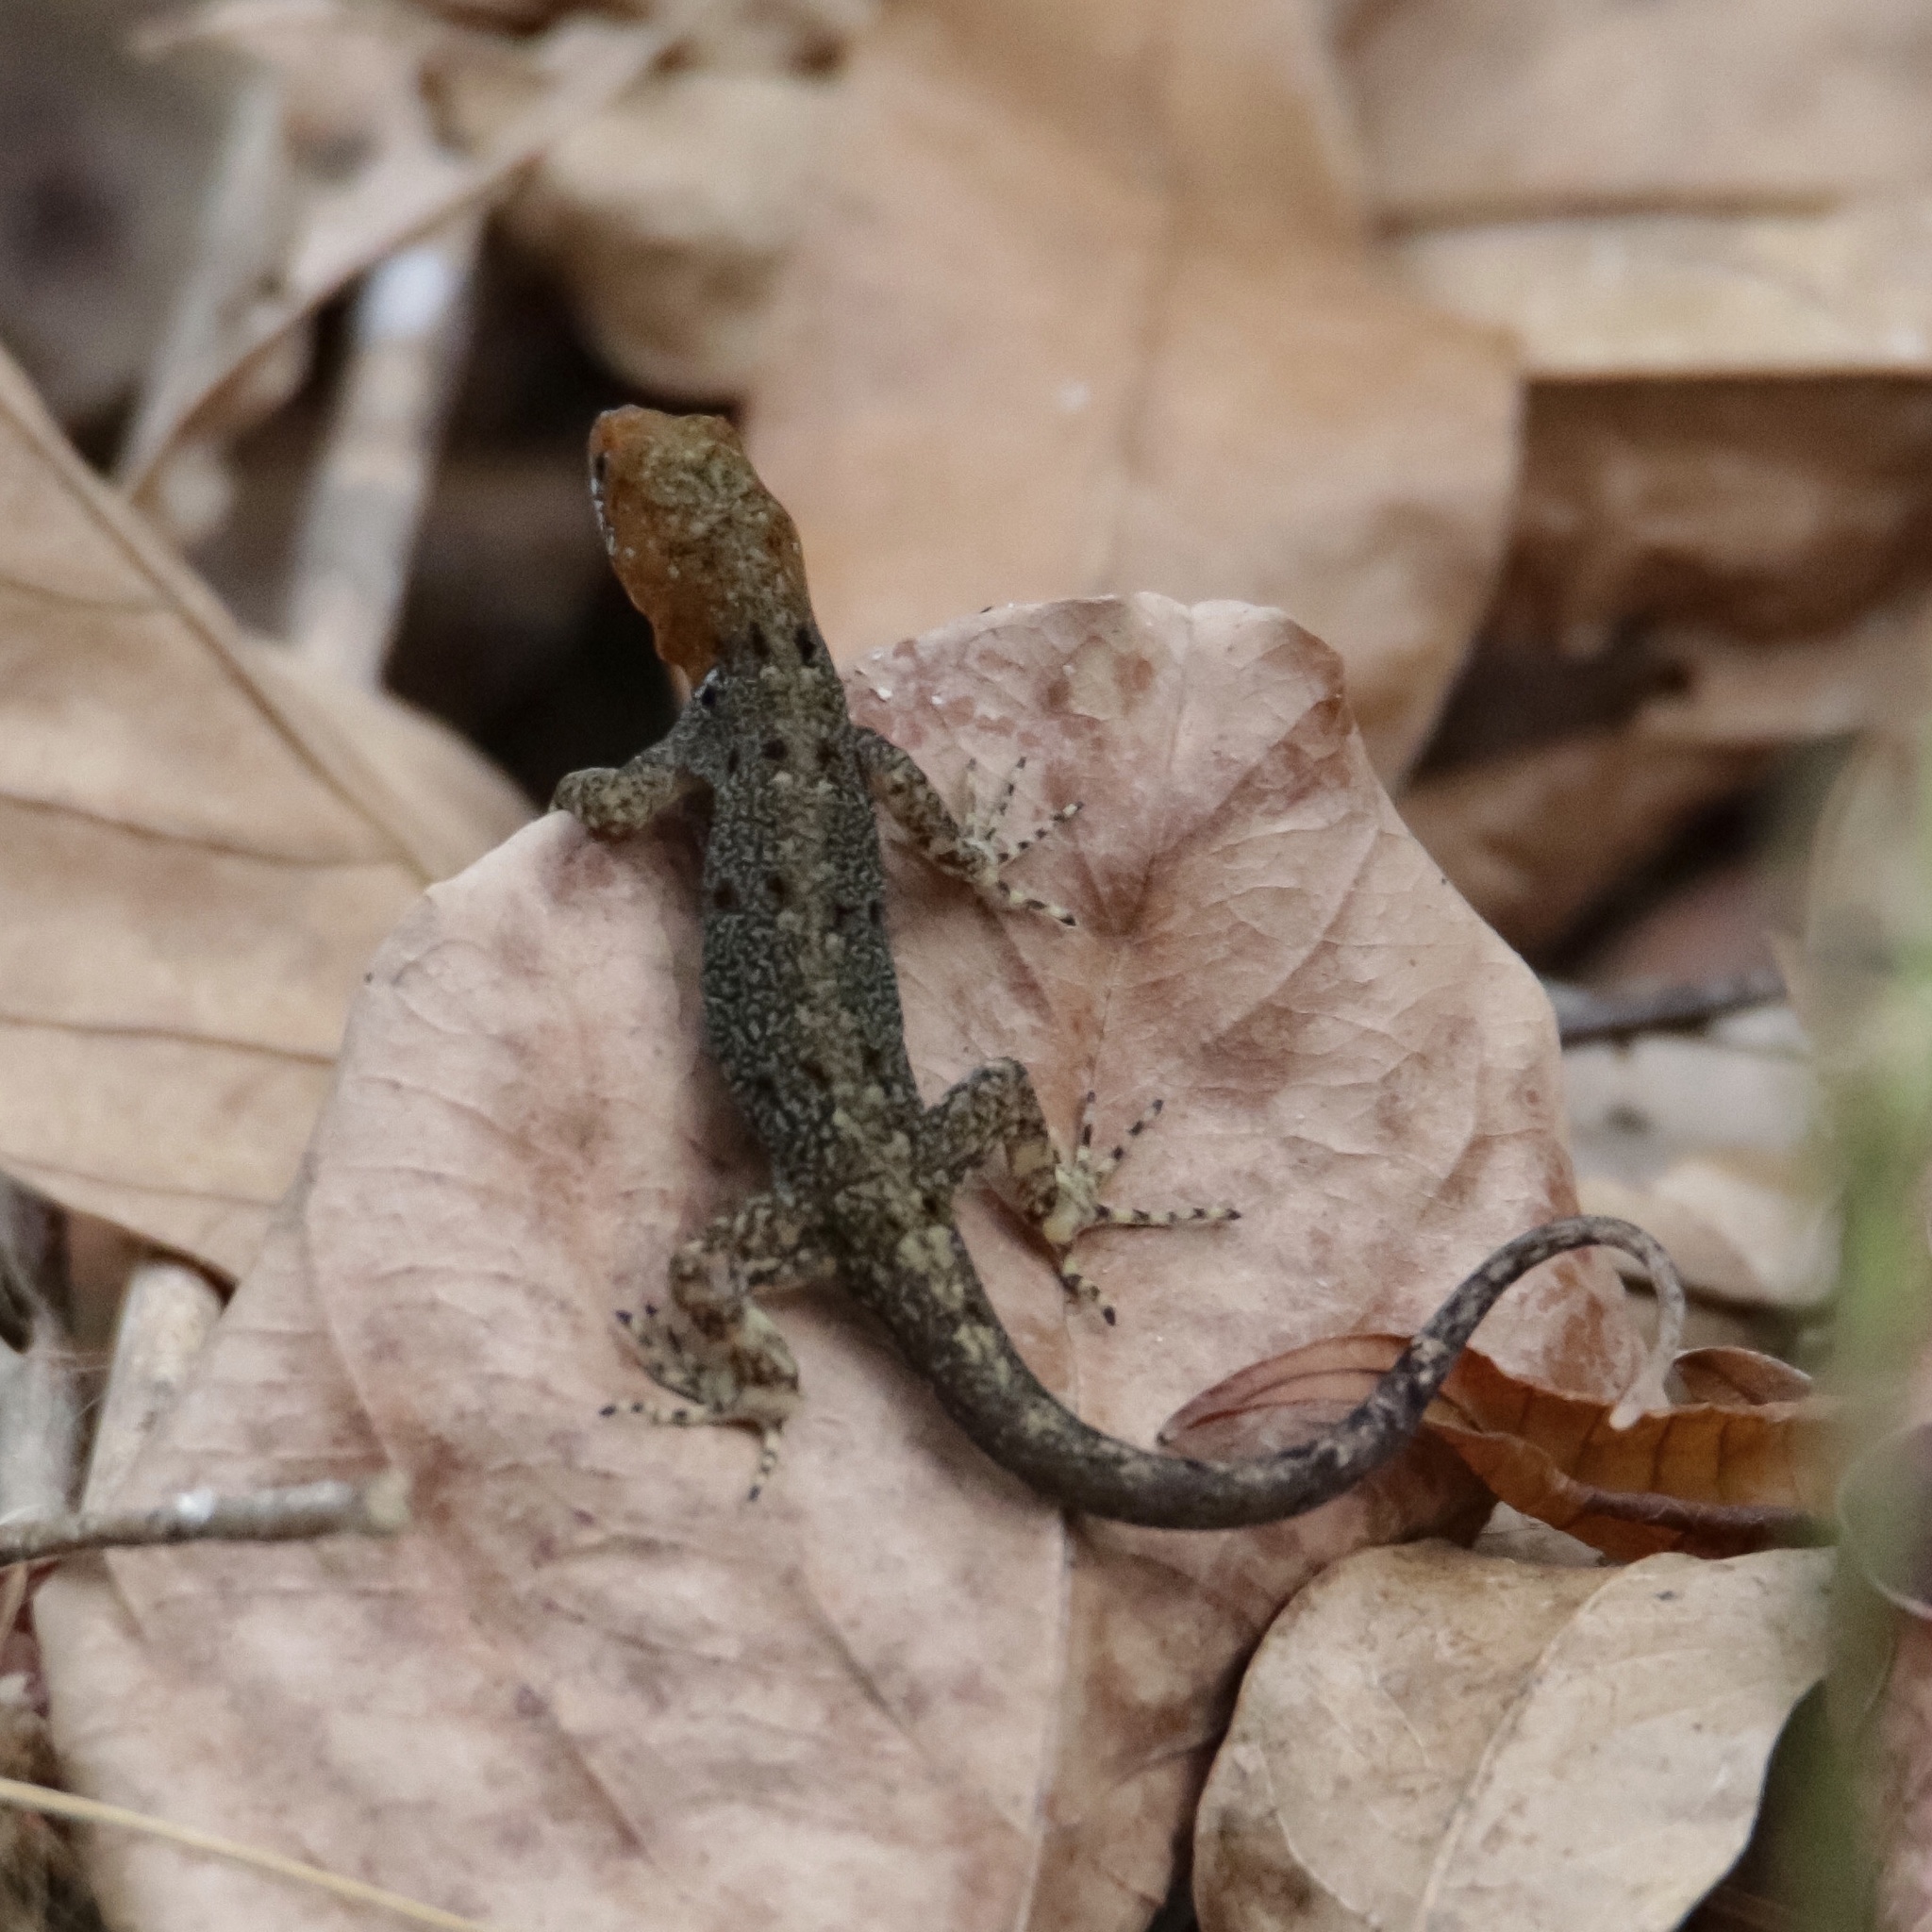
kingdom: Animalia
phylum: Chordata
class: Squamata
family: Sphaerodactylidae
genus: Gonatodes
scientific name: Gonatodes albogularis
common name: Yellow-headed gecko
